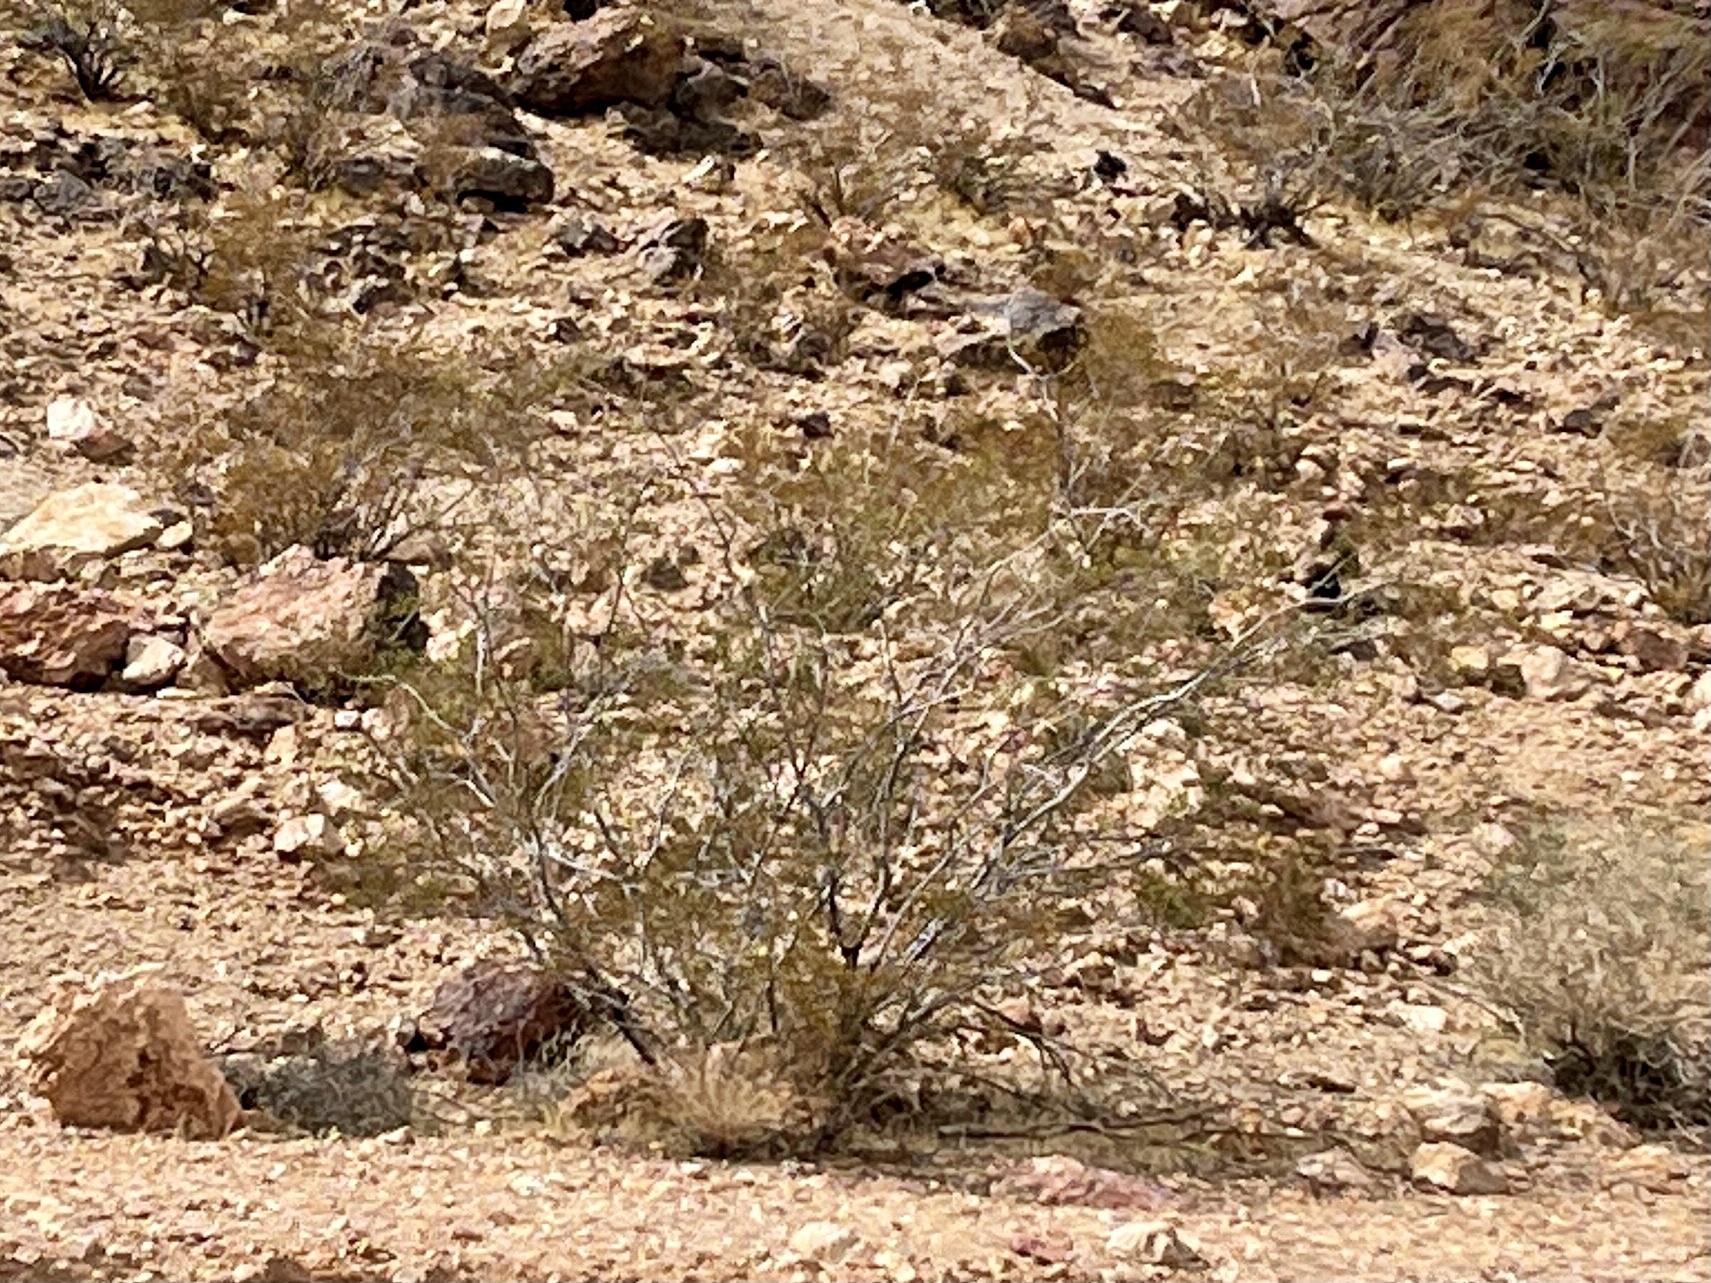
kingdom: Plantae
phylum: Tracheophyta
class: Magnoliopsida
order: Zygophyllales
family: Zygophyllaceae
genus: Larrea
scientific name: Larrea tridentata
